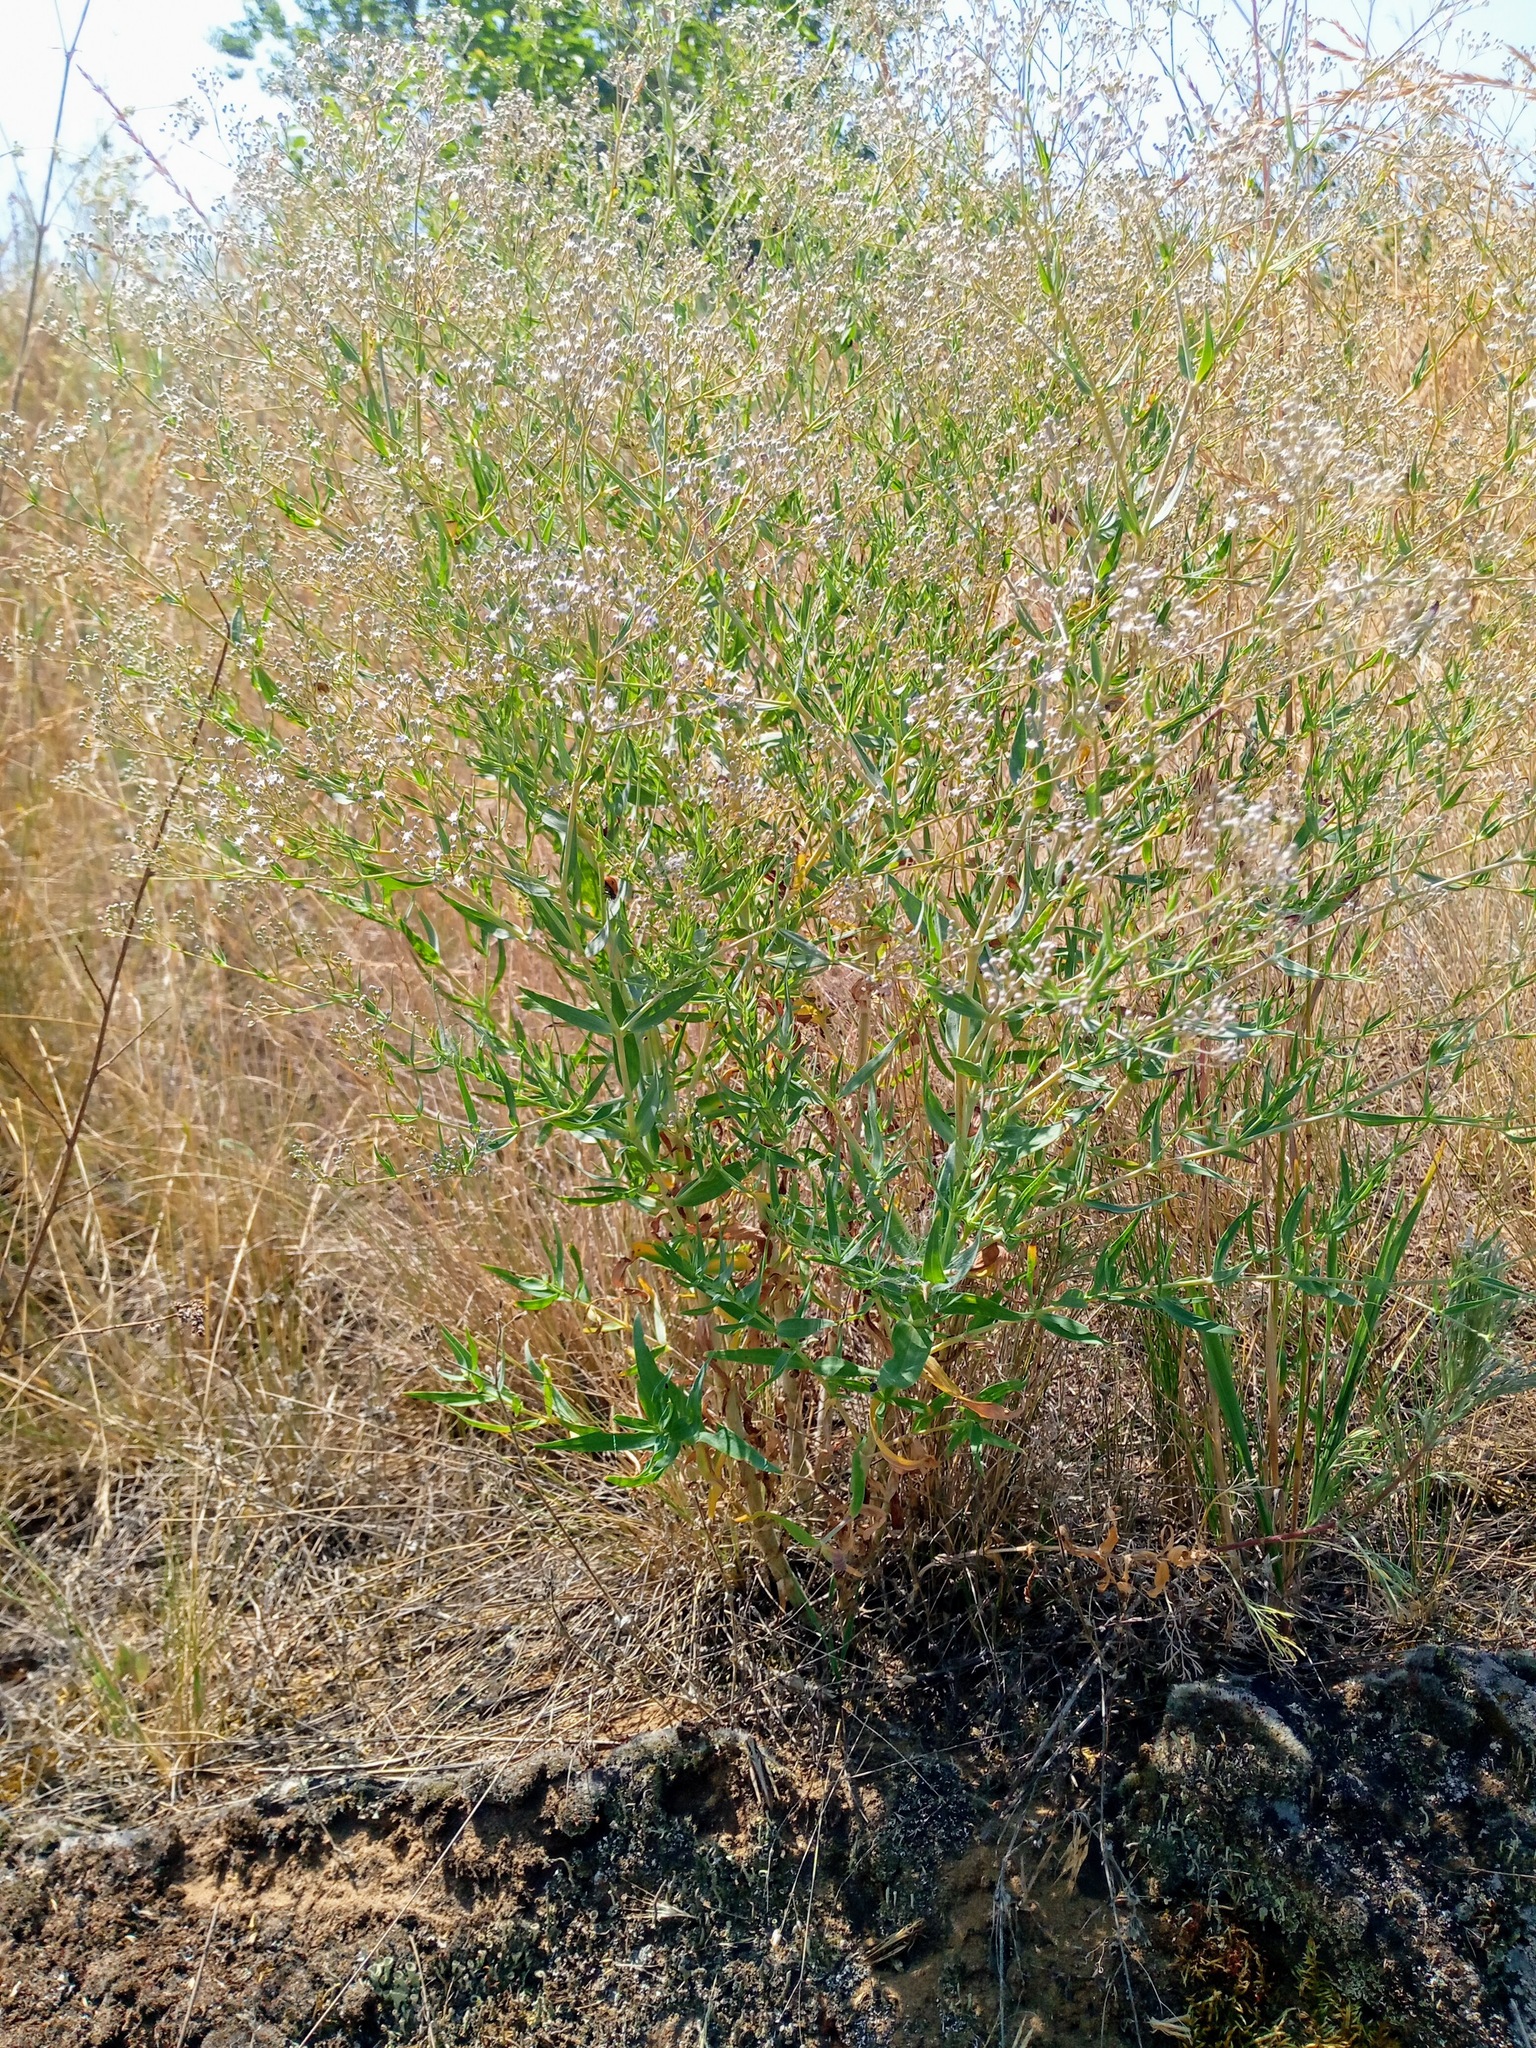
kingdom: Plantae
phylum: Tracheophyta
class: Magnoliopsida
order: Caryophyllales
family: Caryophyllaceae
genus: Gypsophila
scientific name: Gypsophila paniculata
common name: Baby's-breath
